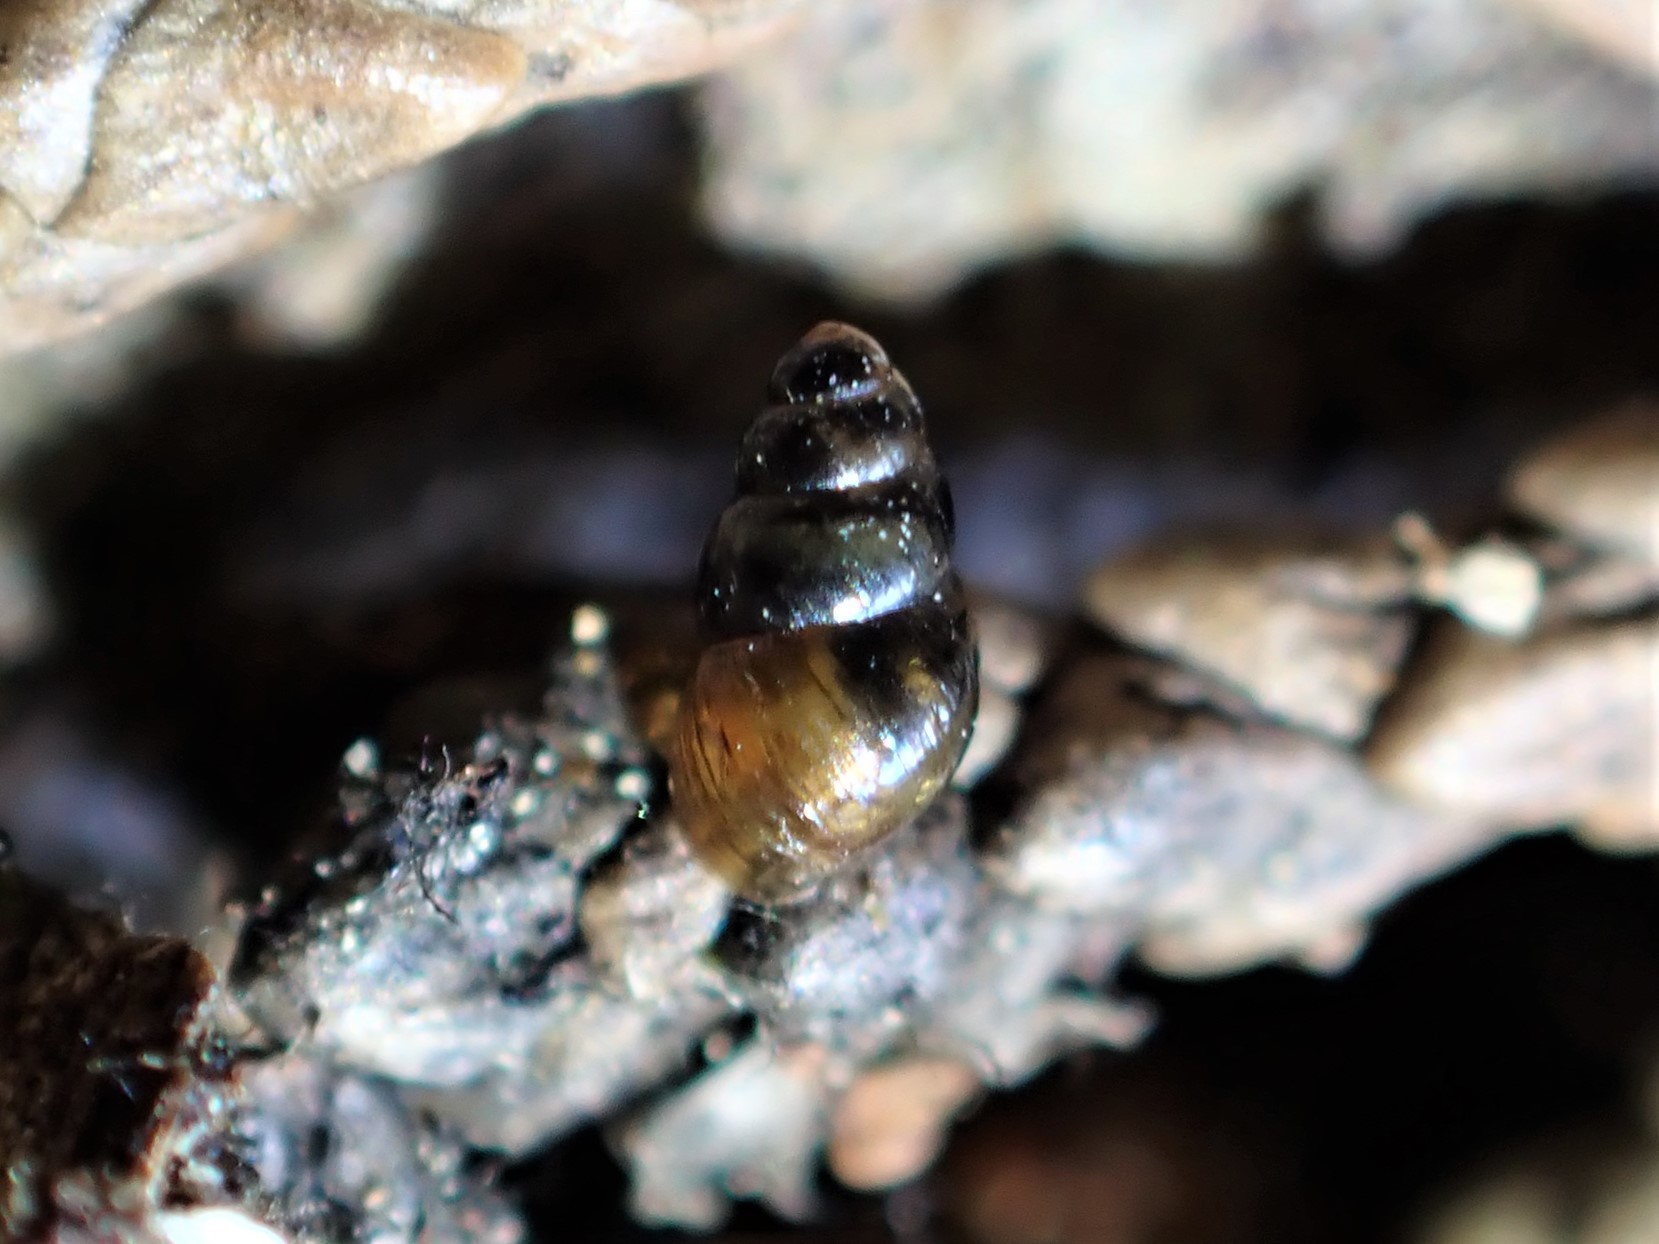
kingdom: Animalia
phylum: Mollusca
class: Gastropoda
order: Stylommatophora
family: Achatinellidae
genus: Tornatellinops
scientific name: Tornatellinops novoseelandicus
